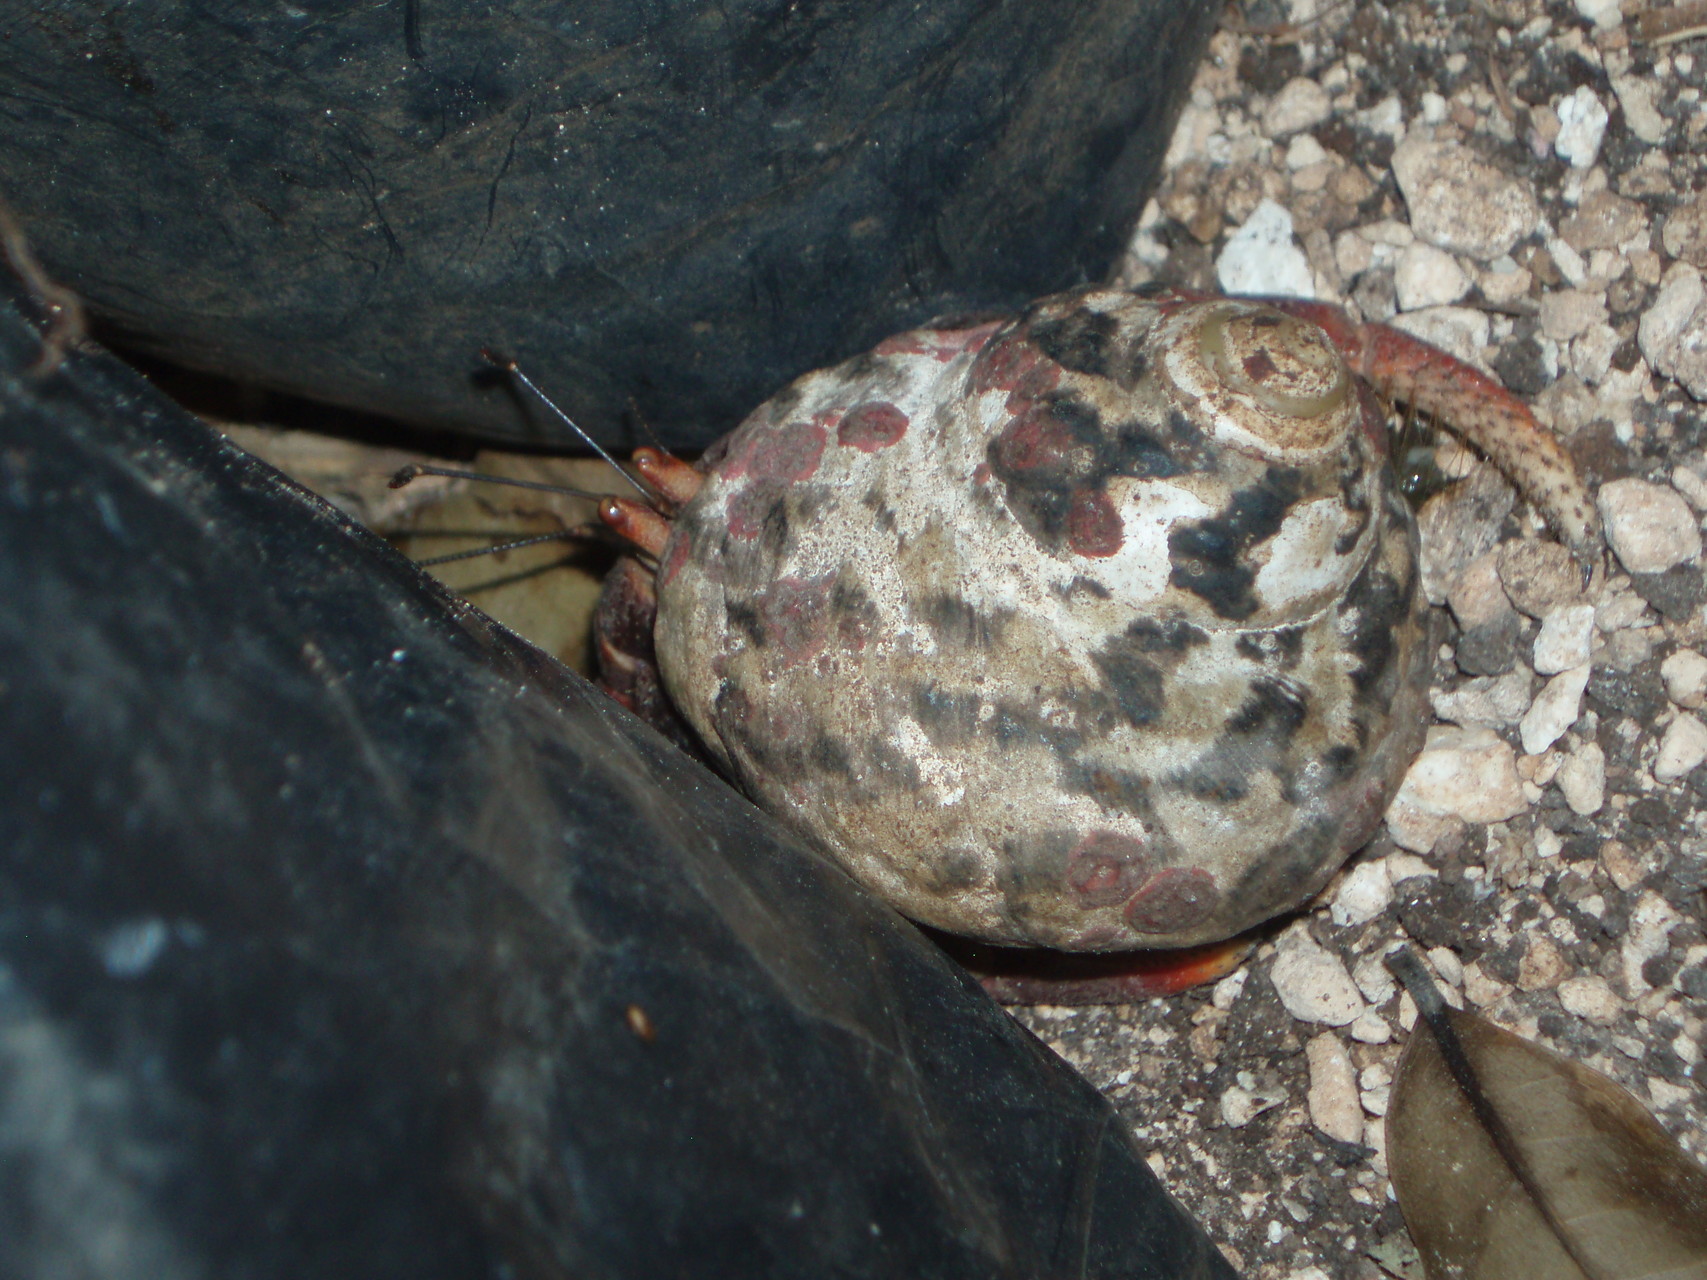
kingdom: Animalia
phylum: Arthropoda
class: Malacostraca
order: Decapoda
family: Coenobitidae
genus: Coenobita
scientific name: Coenobita clypeatus
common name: Caribbean hermit crab
